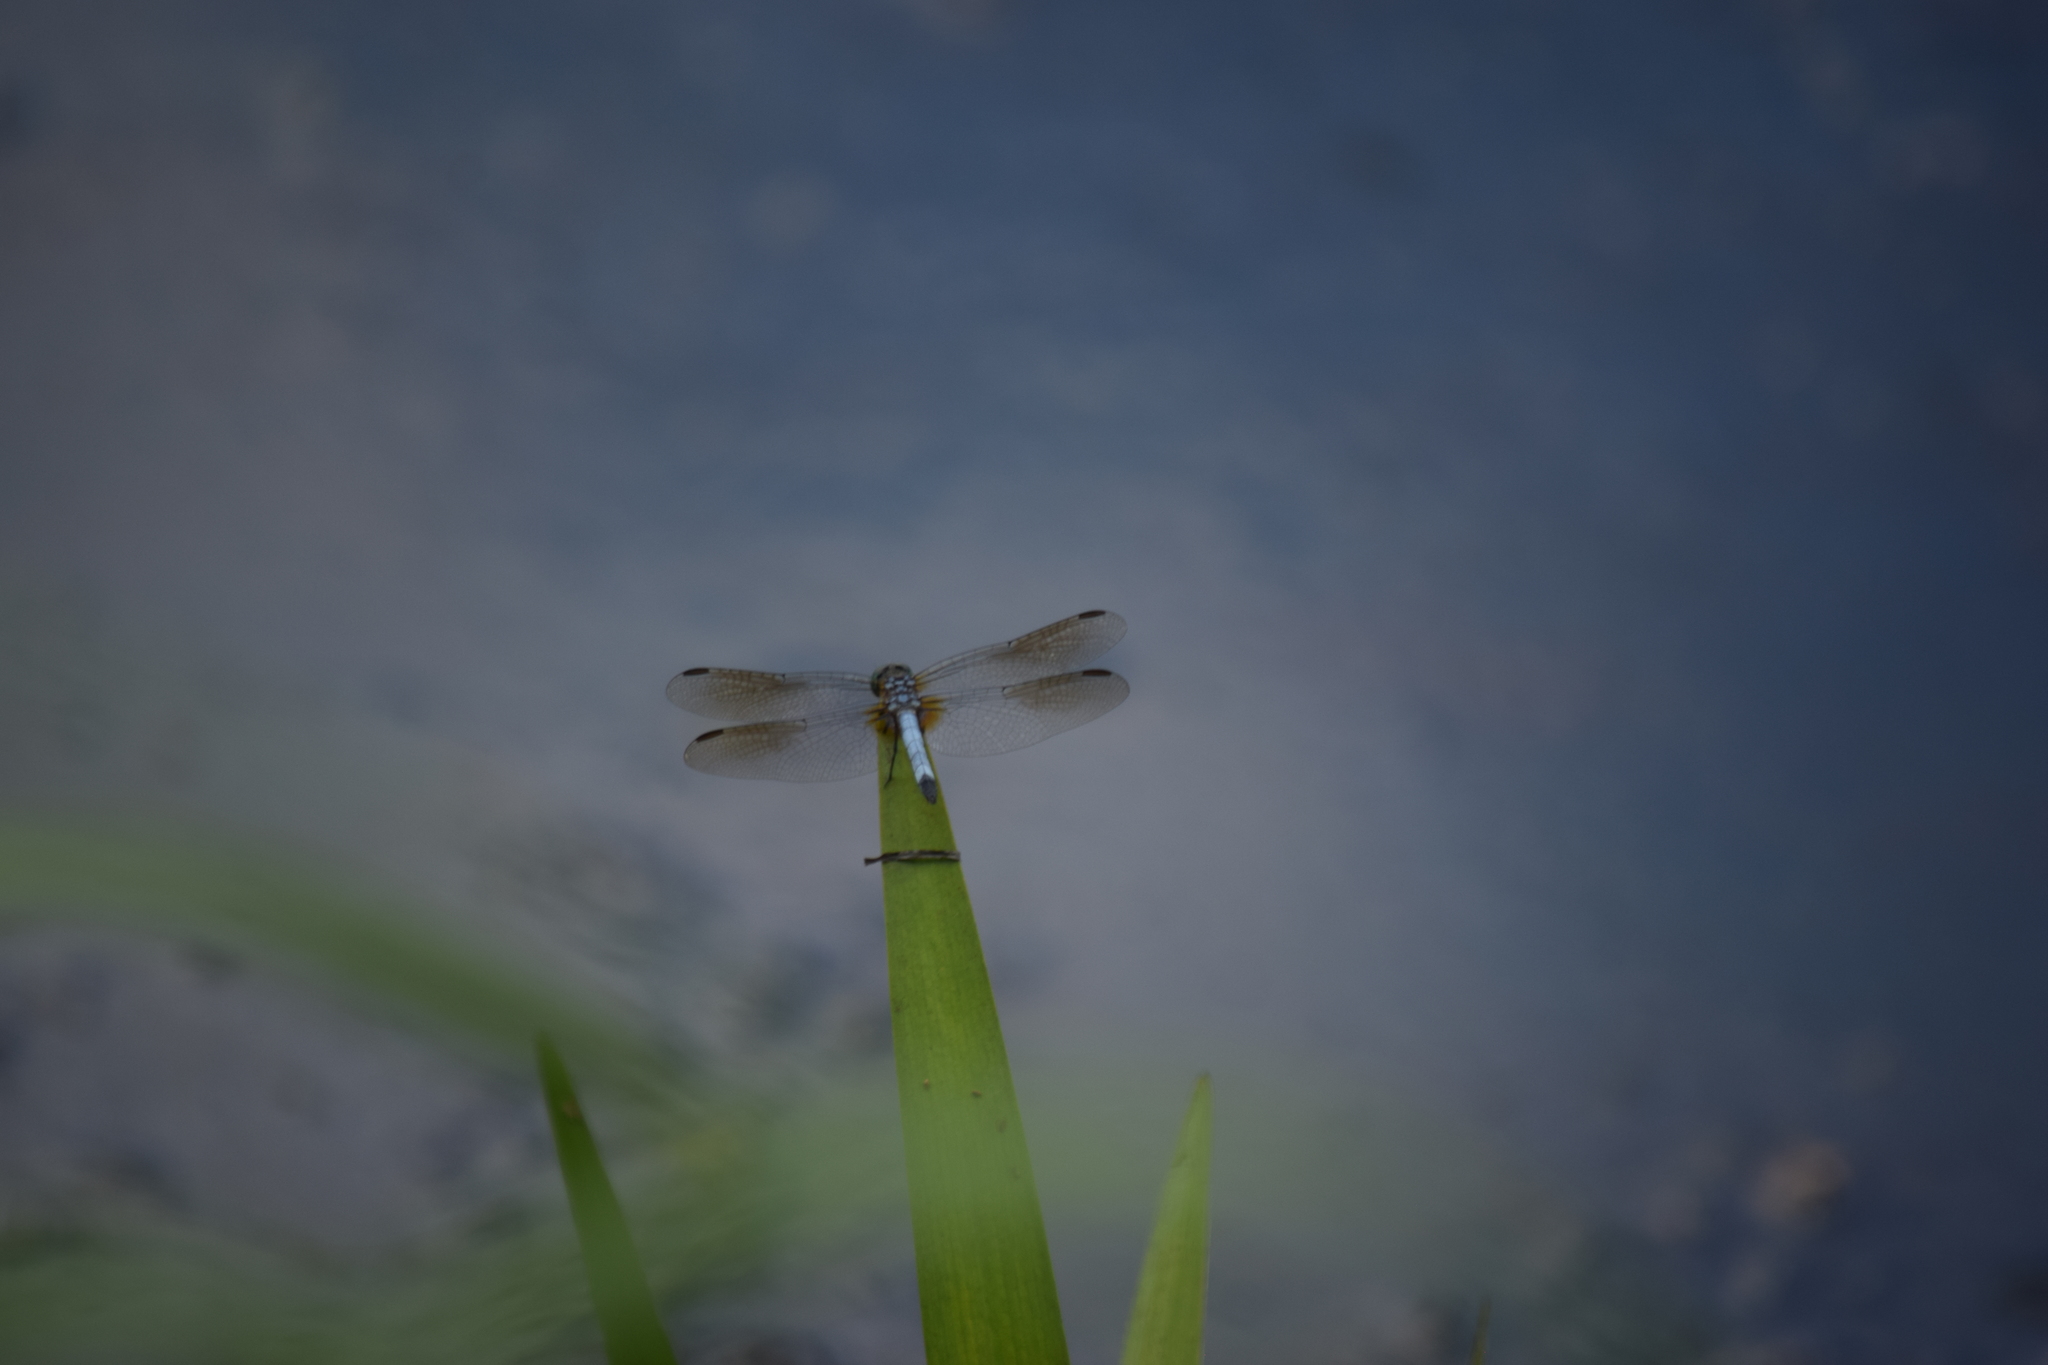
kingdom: Animalia
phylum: Arthropoda
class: Insecta
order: Odonata
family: Libellulidae
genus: Pachydiplax
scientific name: Pachydiplax longipennis
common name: Blue dasher
